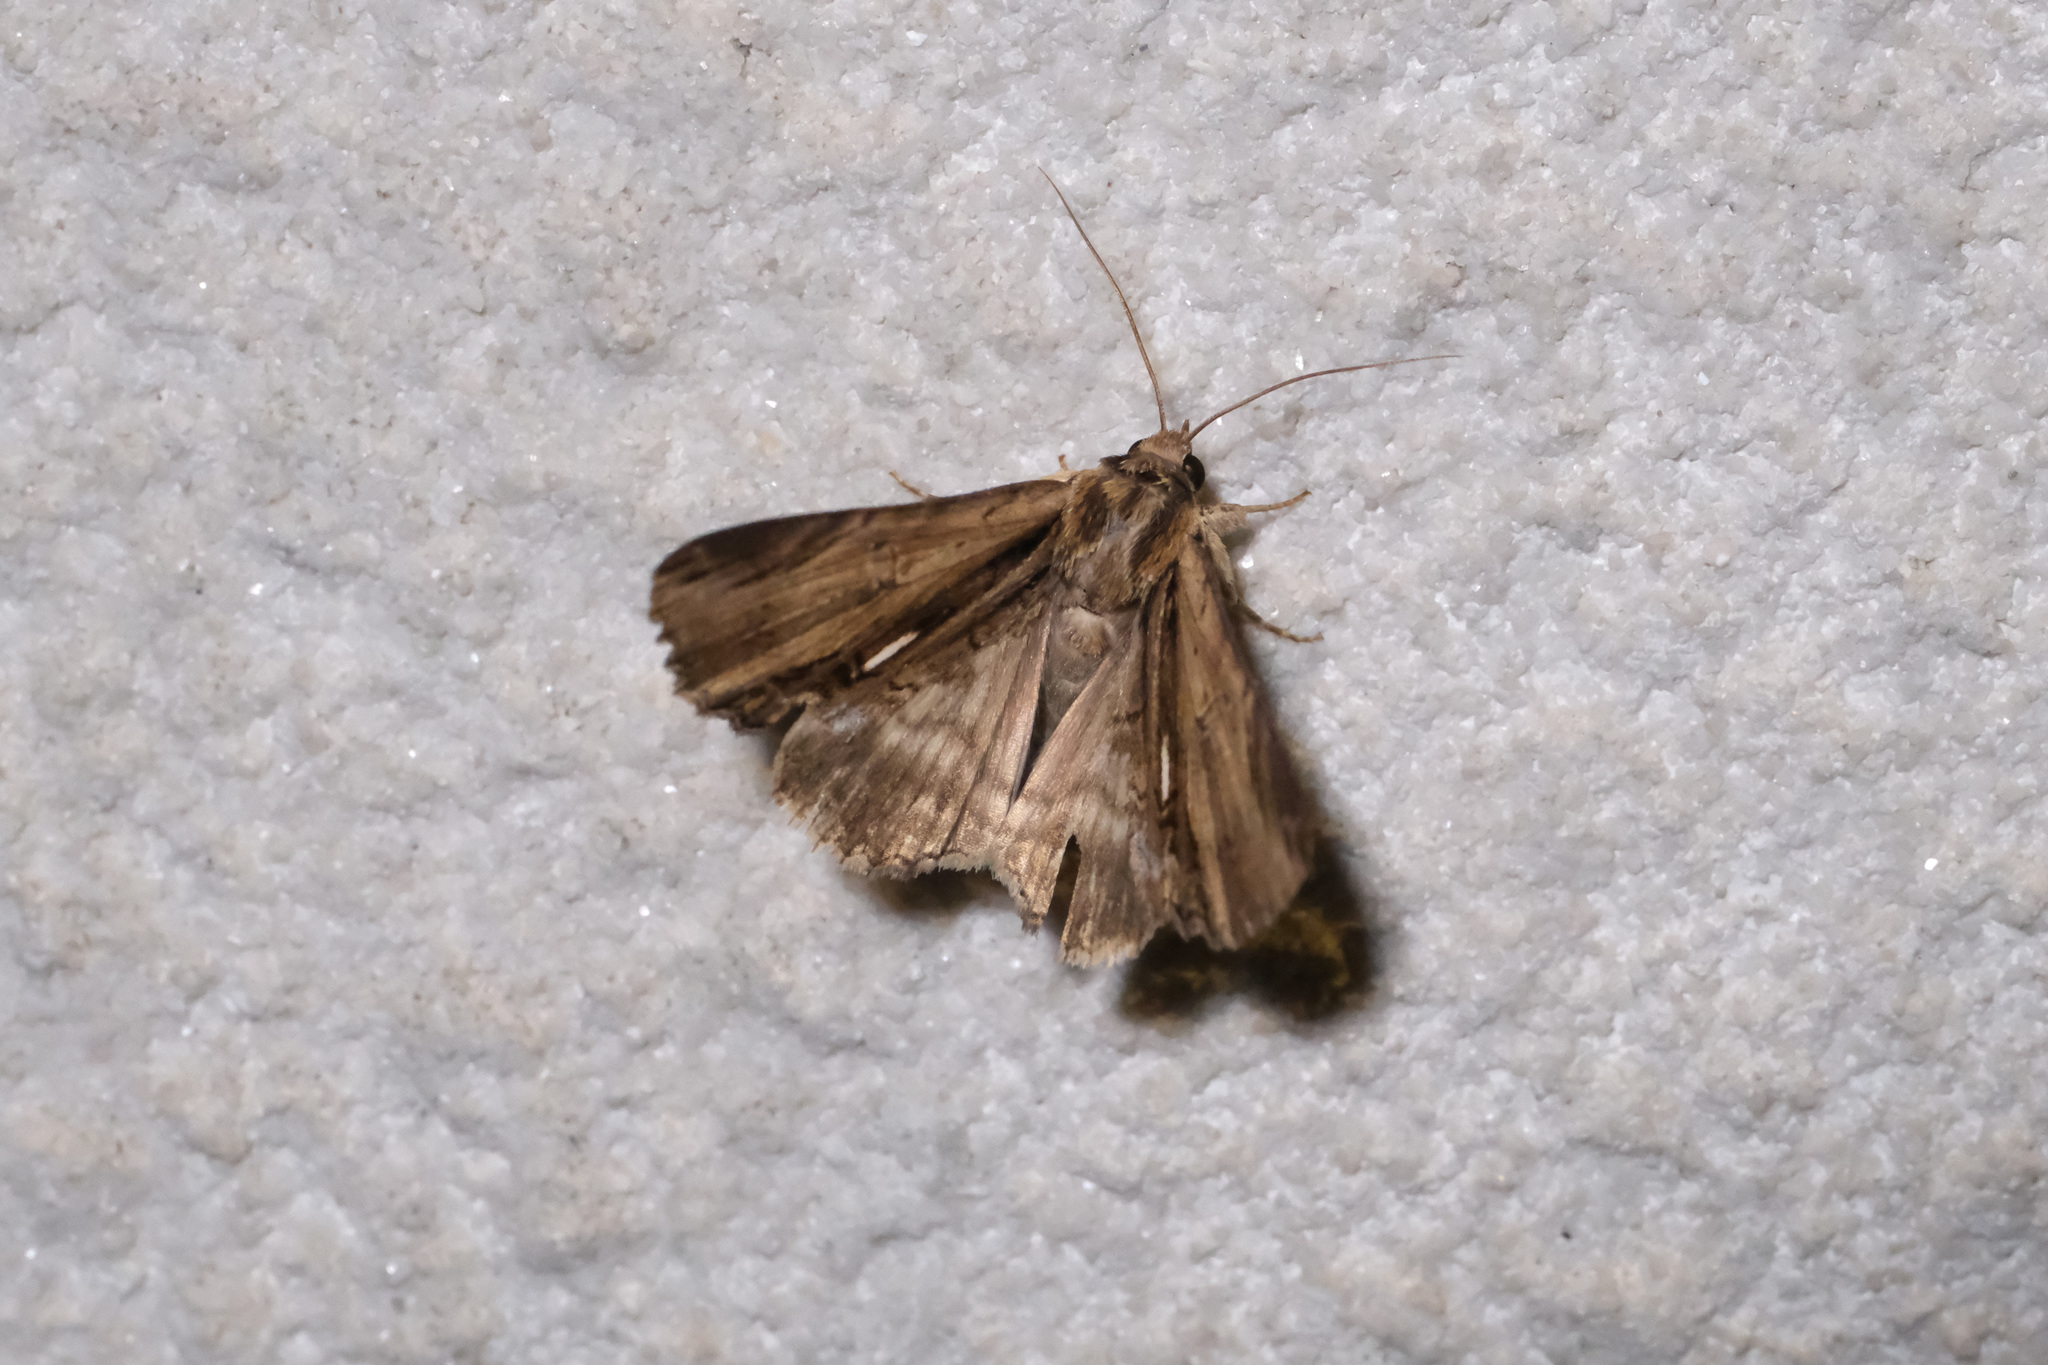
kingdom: Animalia
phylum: Arthropoda
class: Insecta
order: Lepidoptera
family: Erebidae
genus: Ercheia
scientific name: Ercheia niveostrigata
